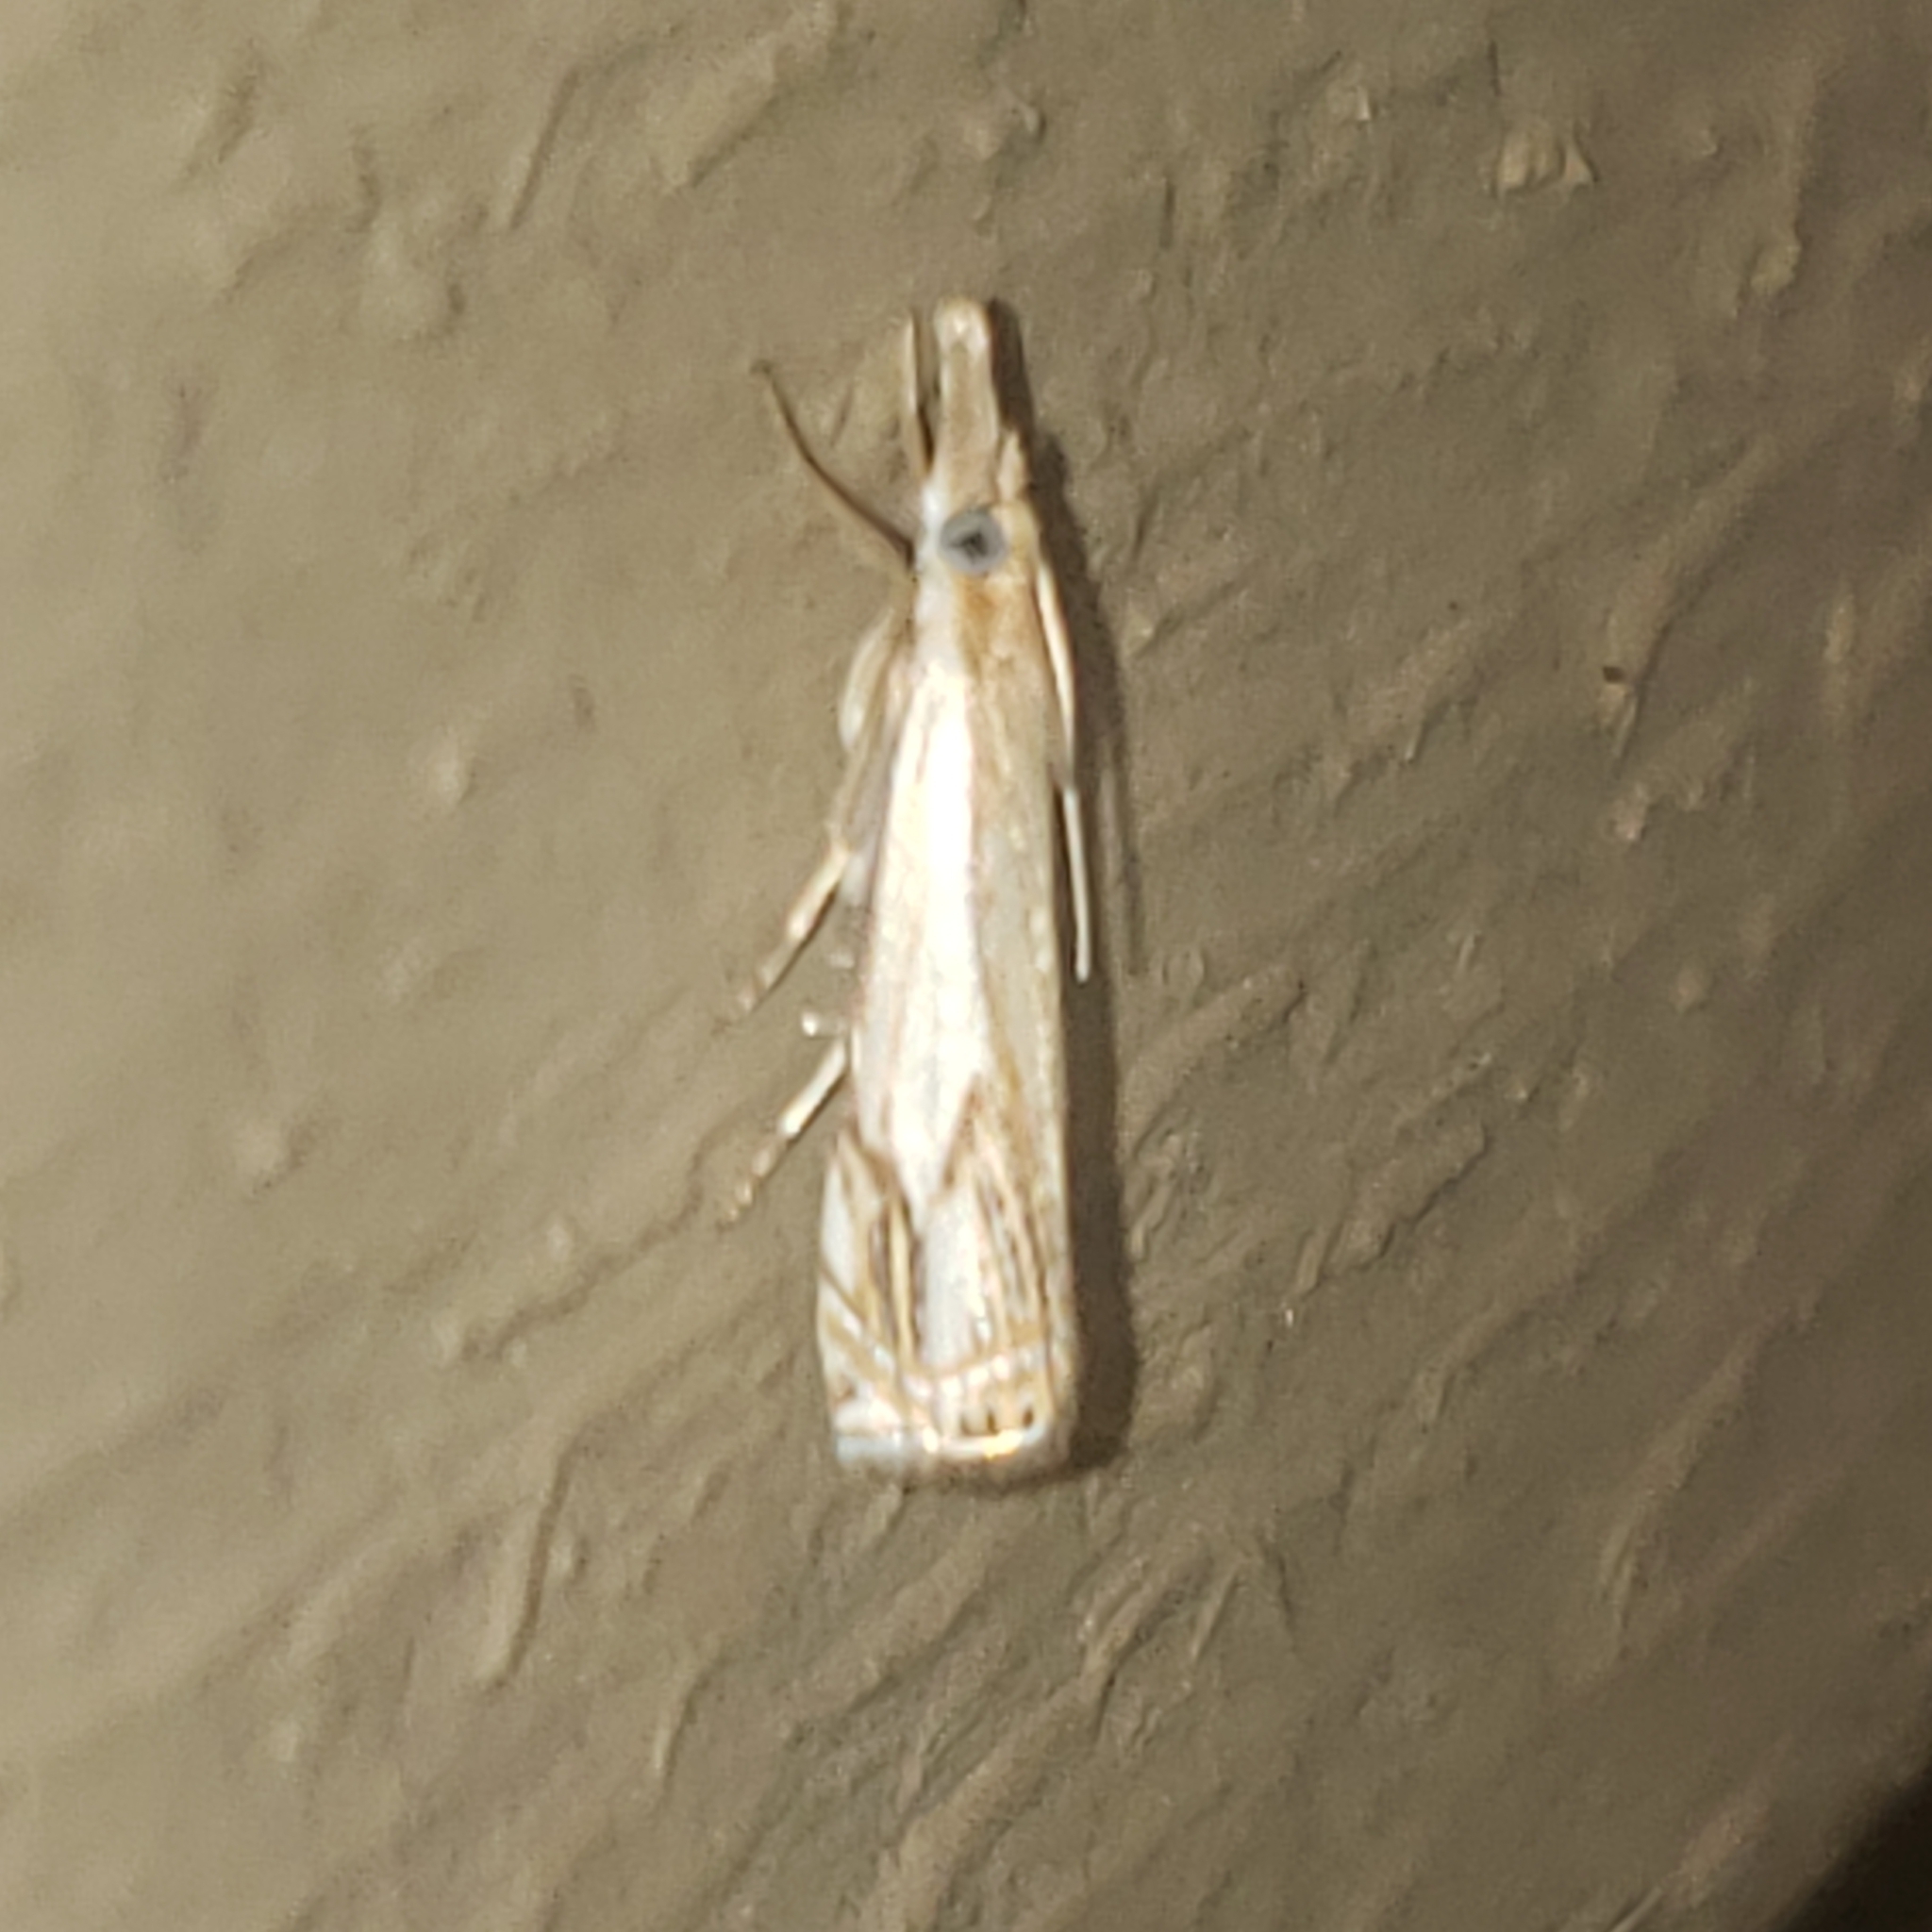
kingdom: Animalia
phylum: Arthropoda
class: Insecta
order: Lepidoptera
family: Crambidae
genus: Crambus
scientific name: Crambus agitatellus
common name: Double-banded grass-veneer
